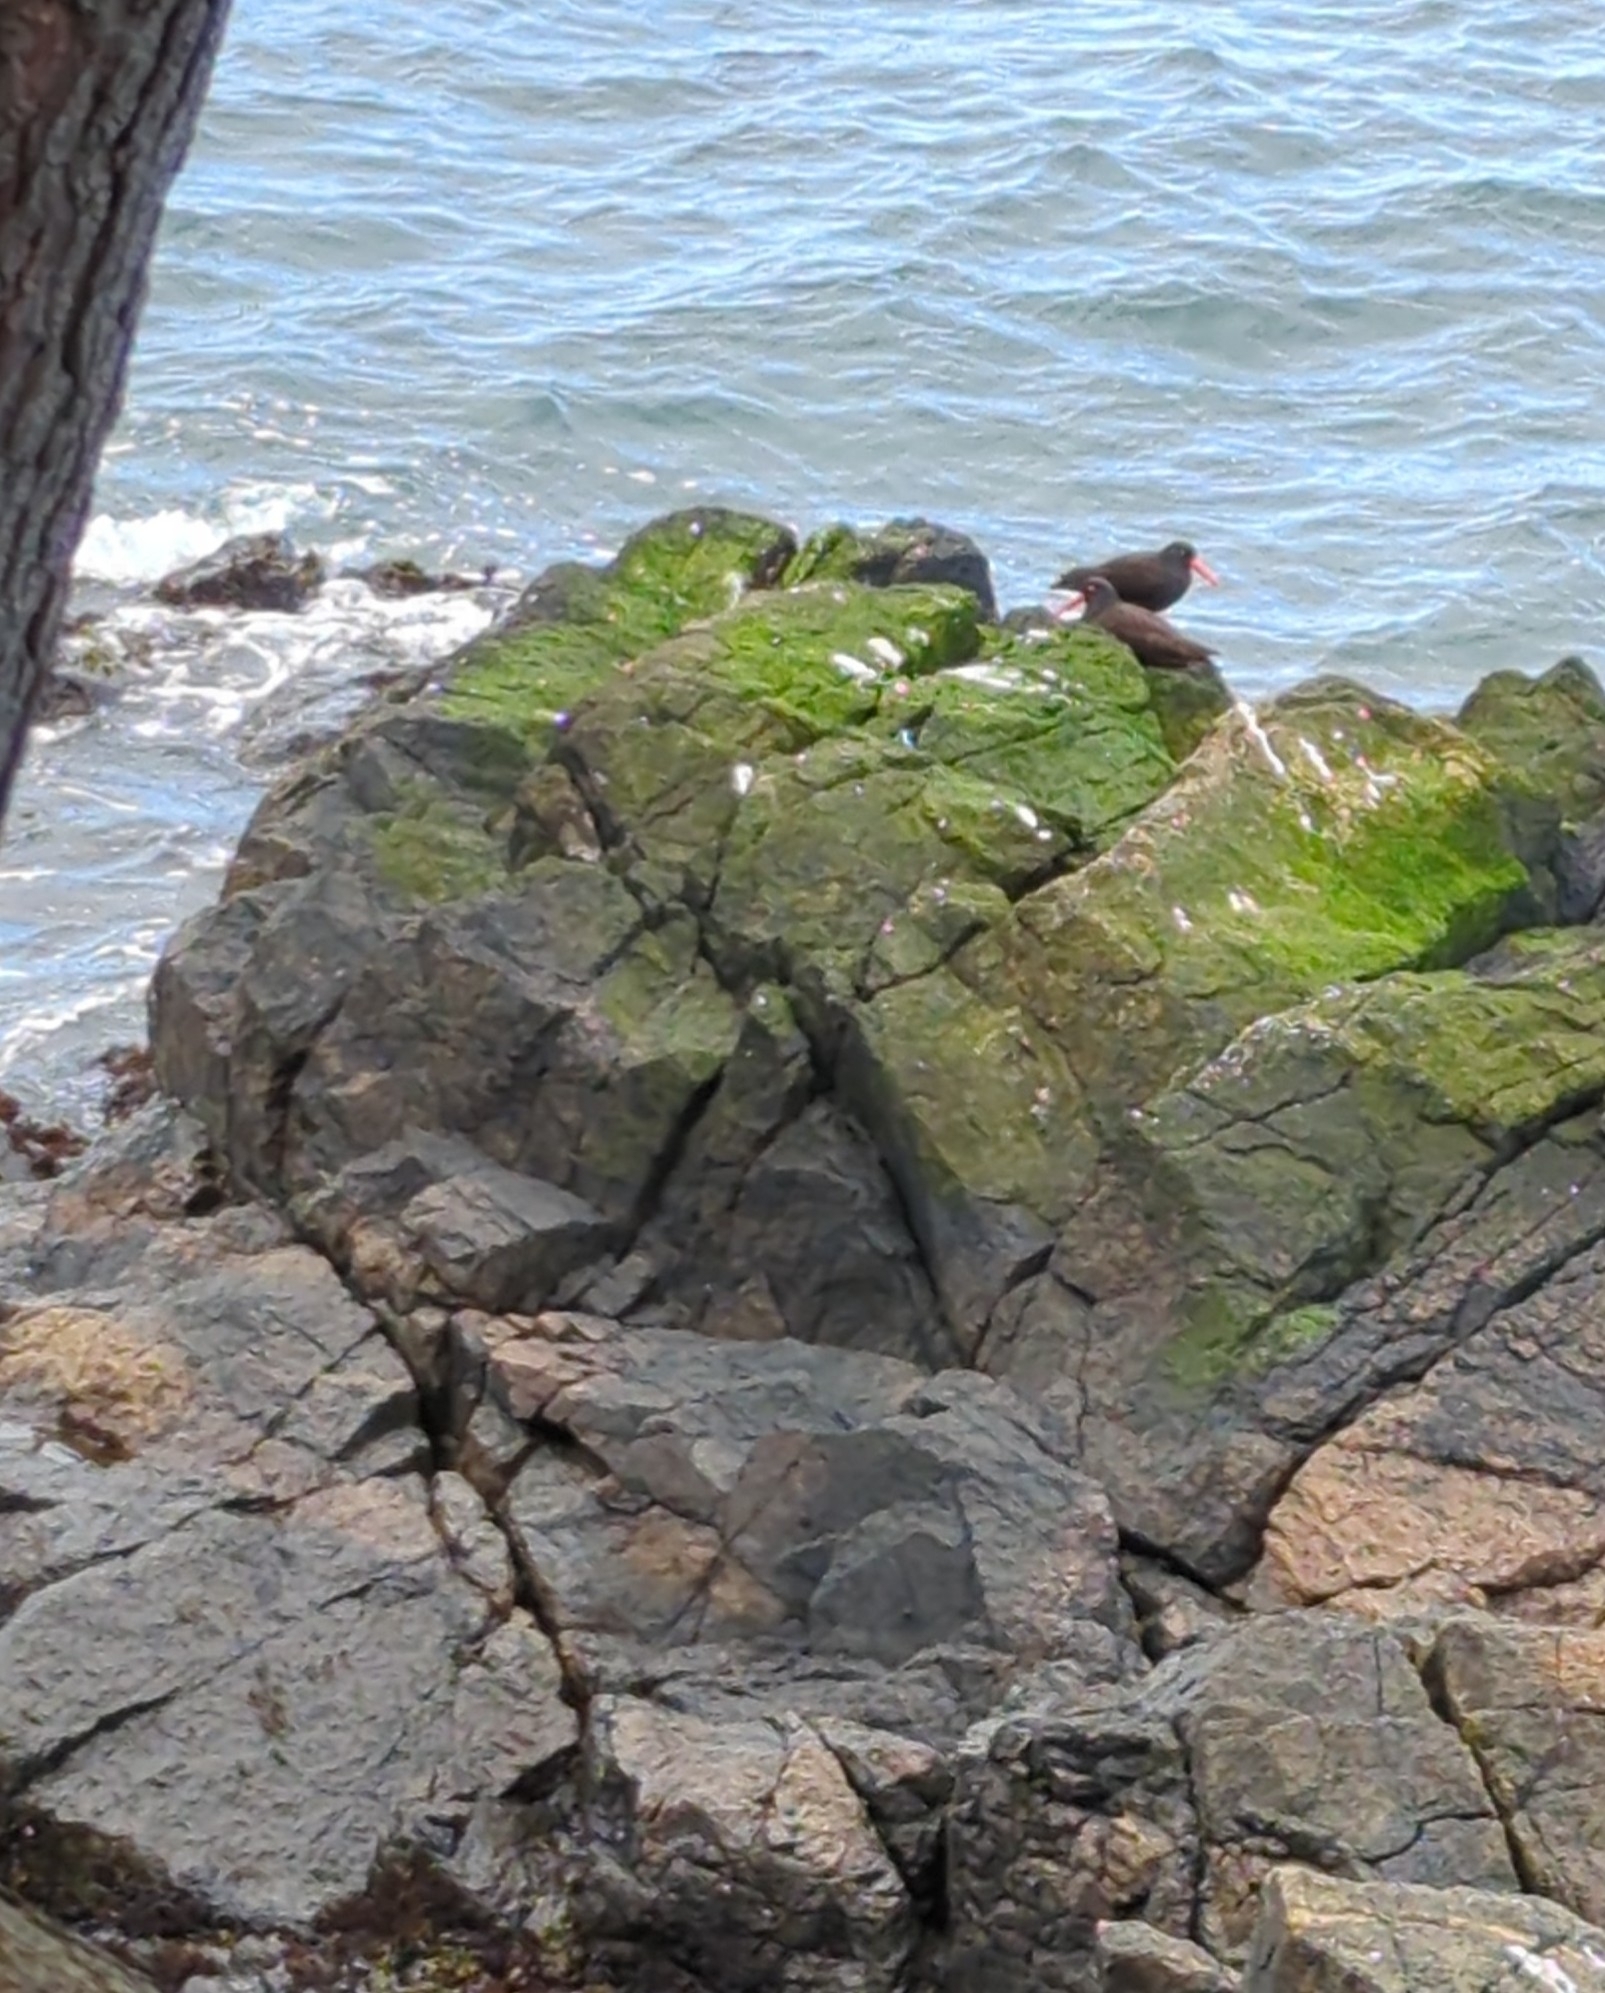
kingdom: Animalia
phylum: Chordata
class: Aves
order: Charadriiformes
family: Haematopodidae
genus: Haematopus
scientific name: Haematopus bachmani
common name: Black oystercatcher
